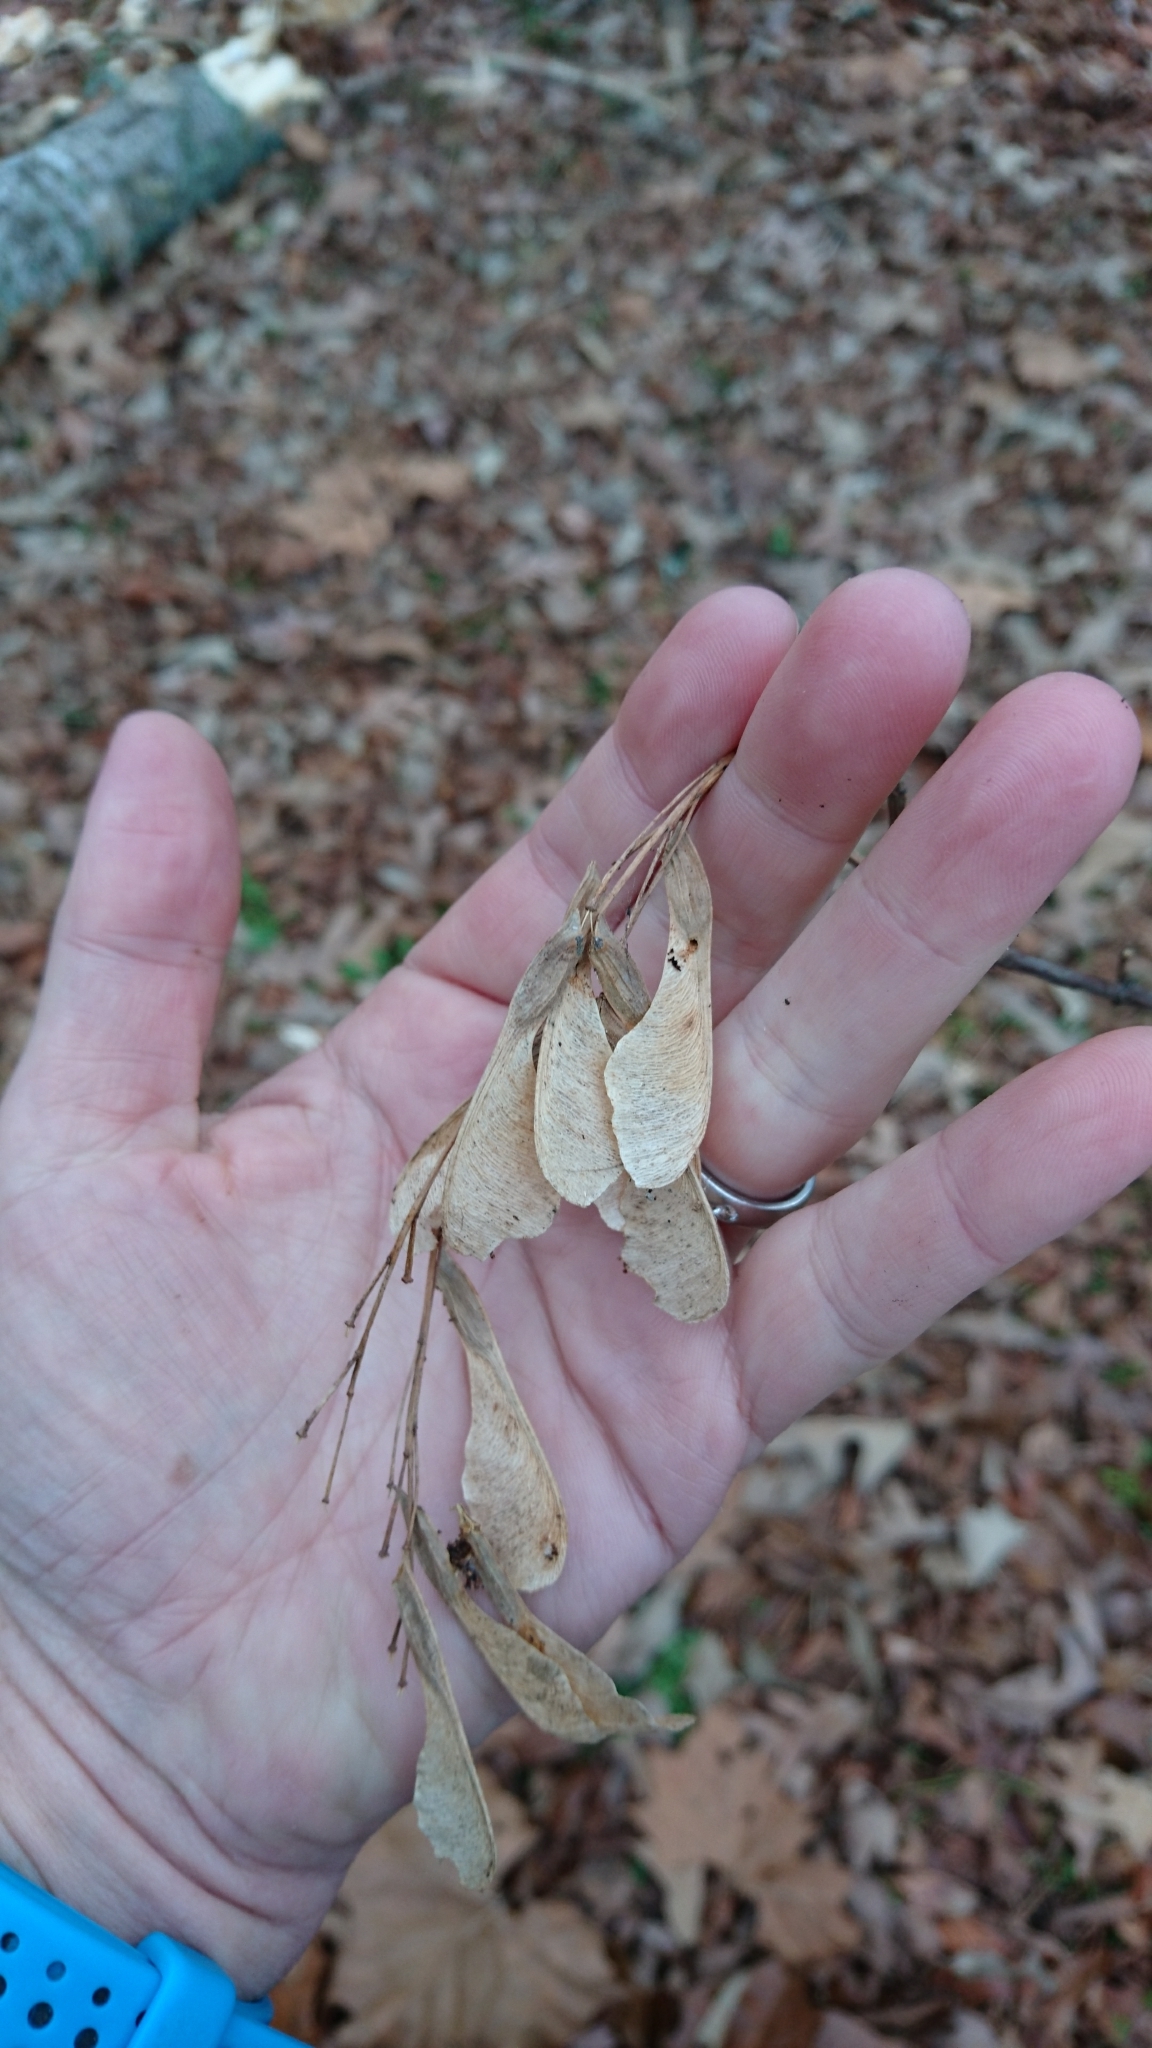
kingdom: Plantae
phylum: Tracheophyta
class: Magnoliopsida
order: Sapindales
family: Sapindaceae
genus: Acer
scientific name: Acer negundo
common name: Ashleaf maple
